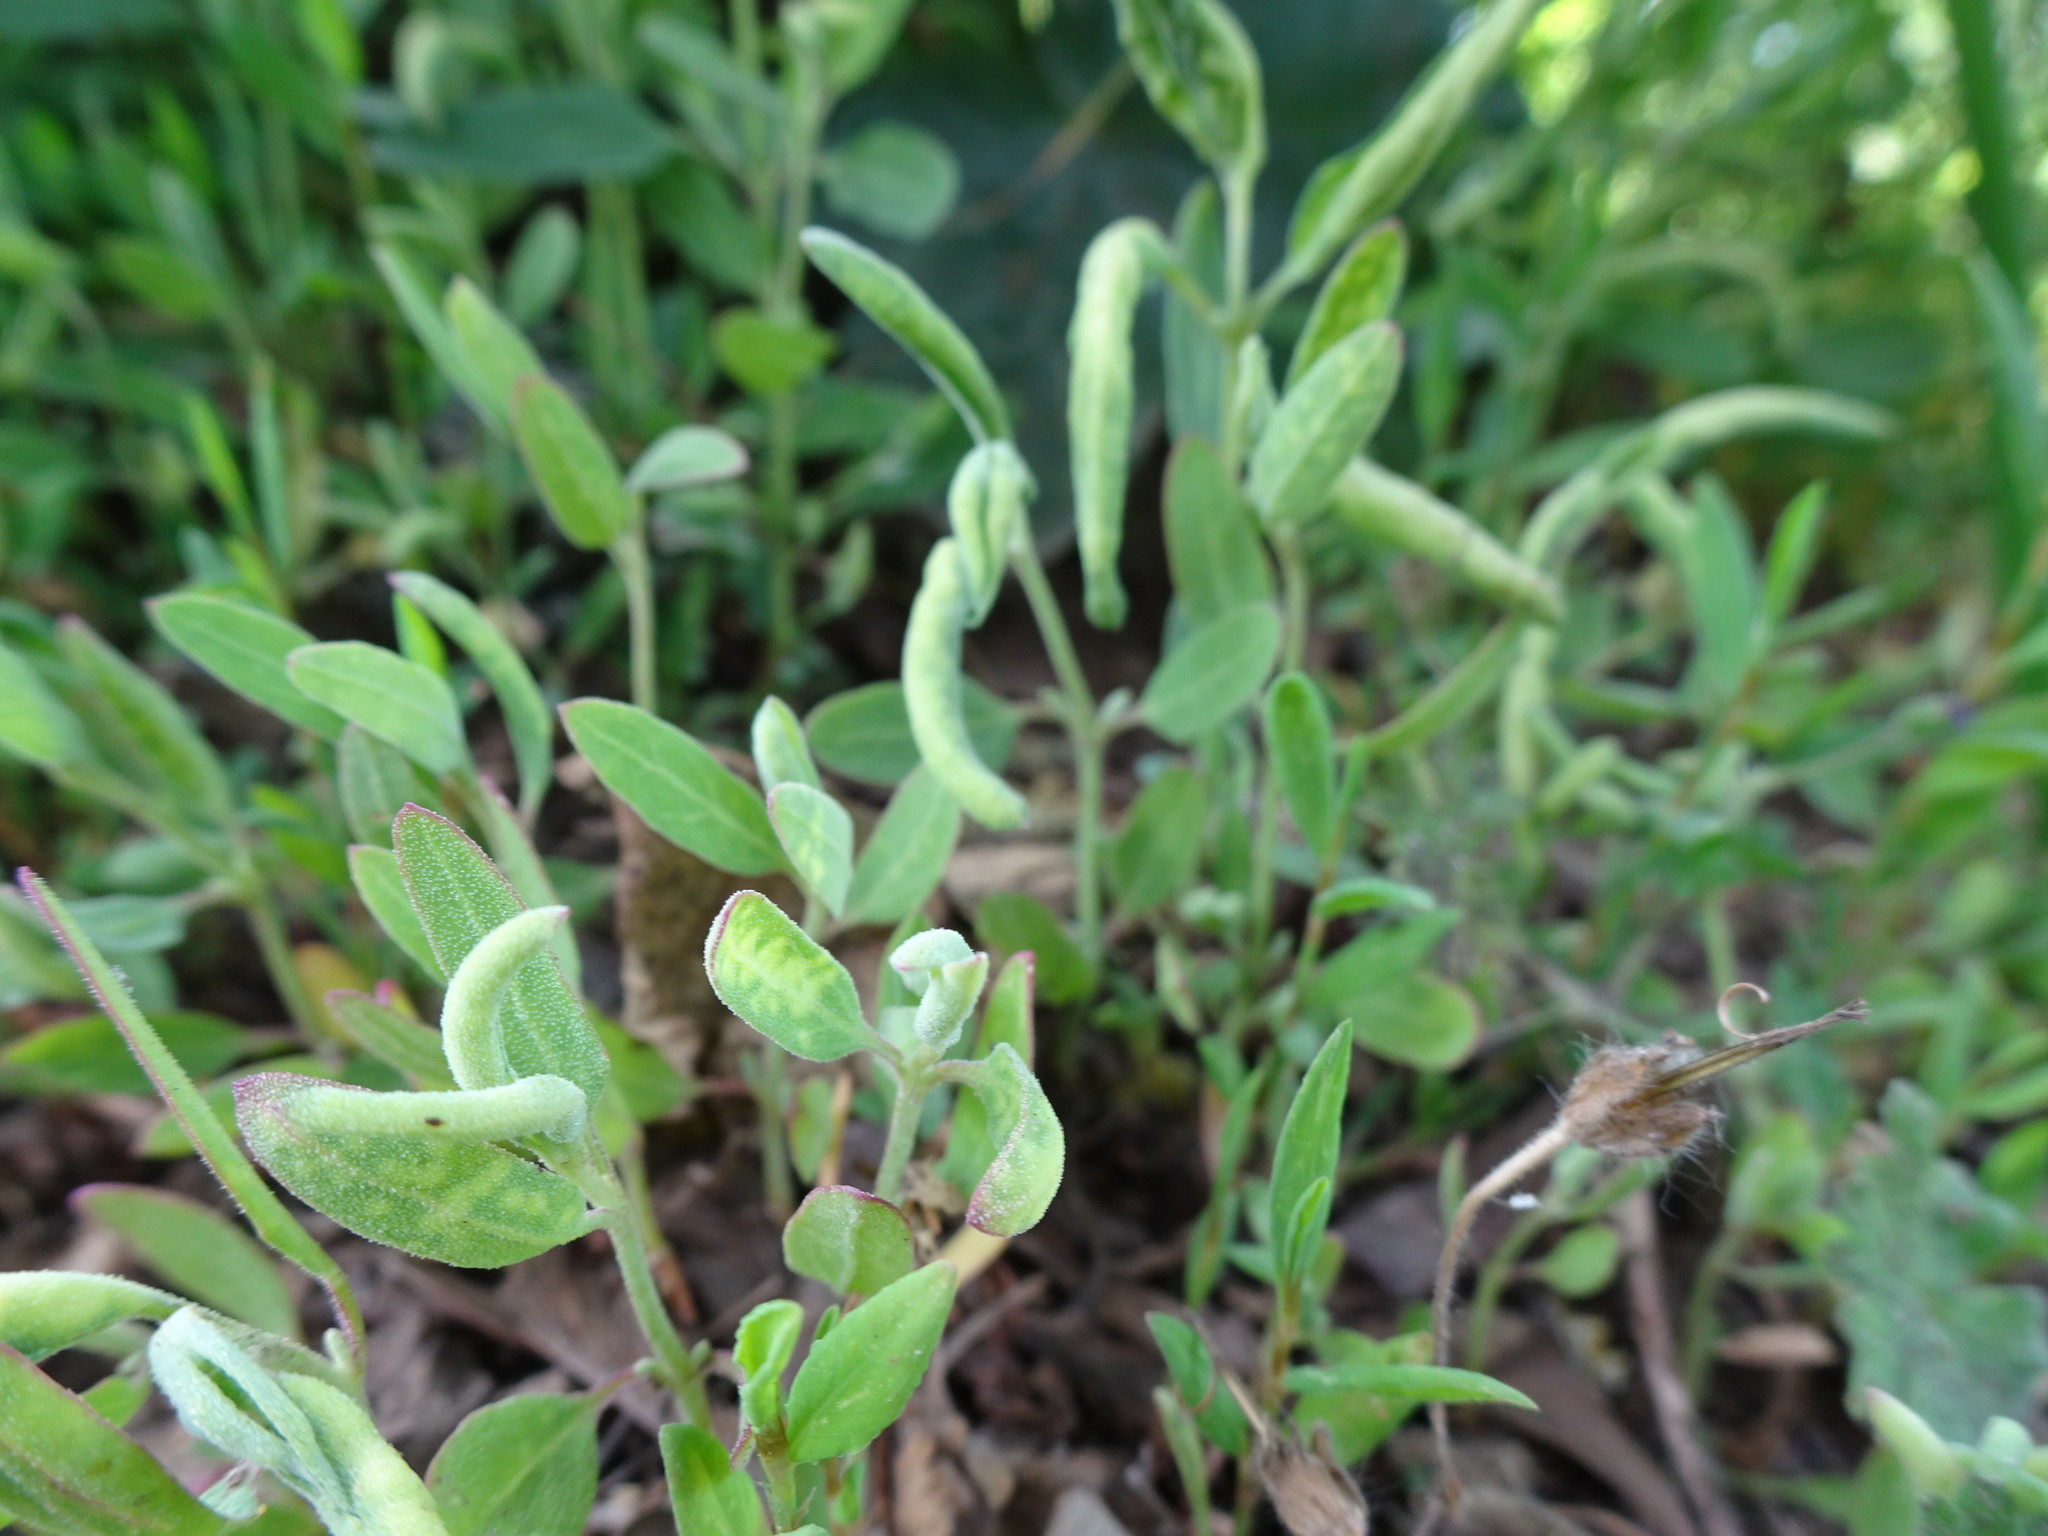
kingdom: Plantae
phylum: Tracheophyta
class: Magnoliopsida
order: Caryophyllales
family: Amaranthaceae
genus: Atriplex
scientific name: Atriplex patula
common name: Common orache
